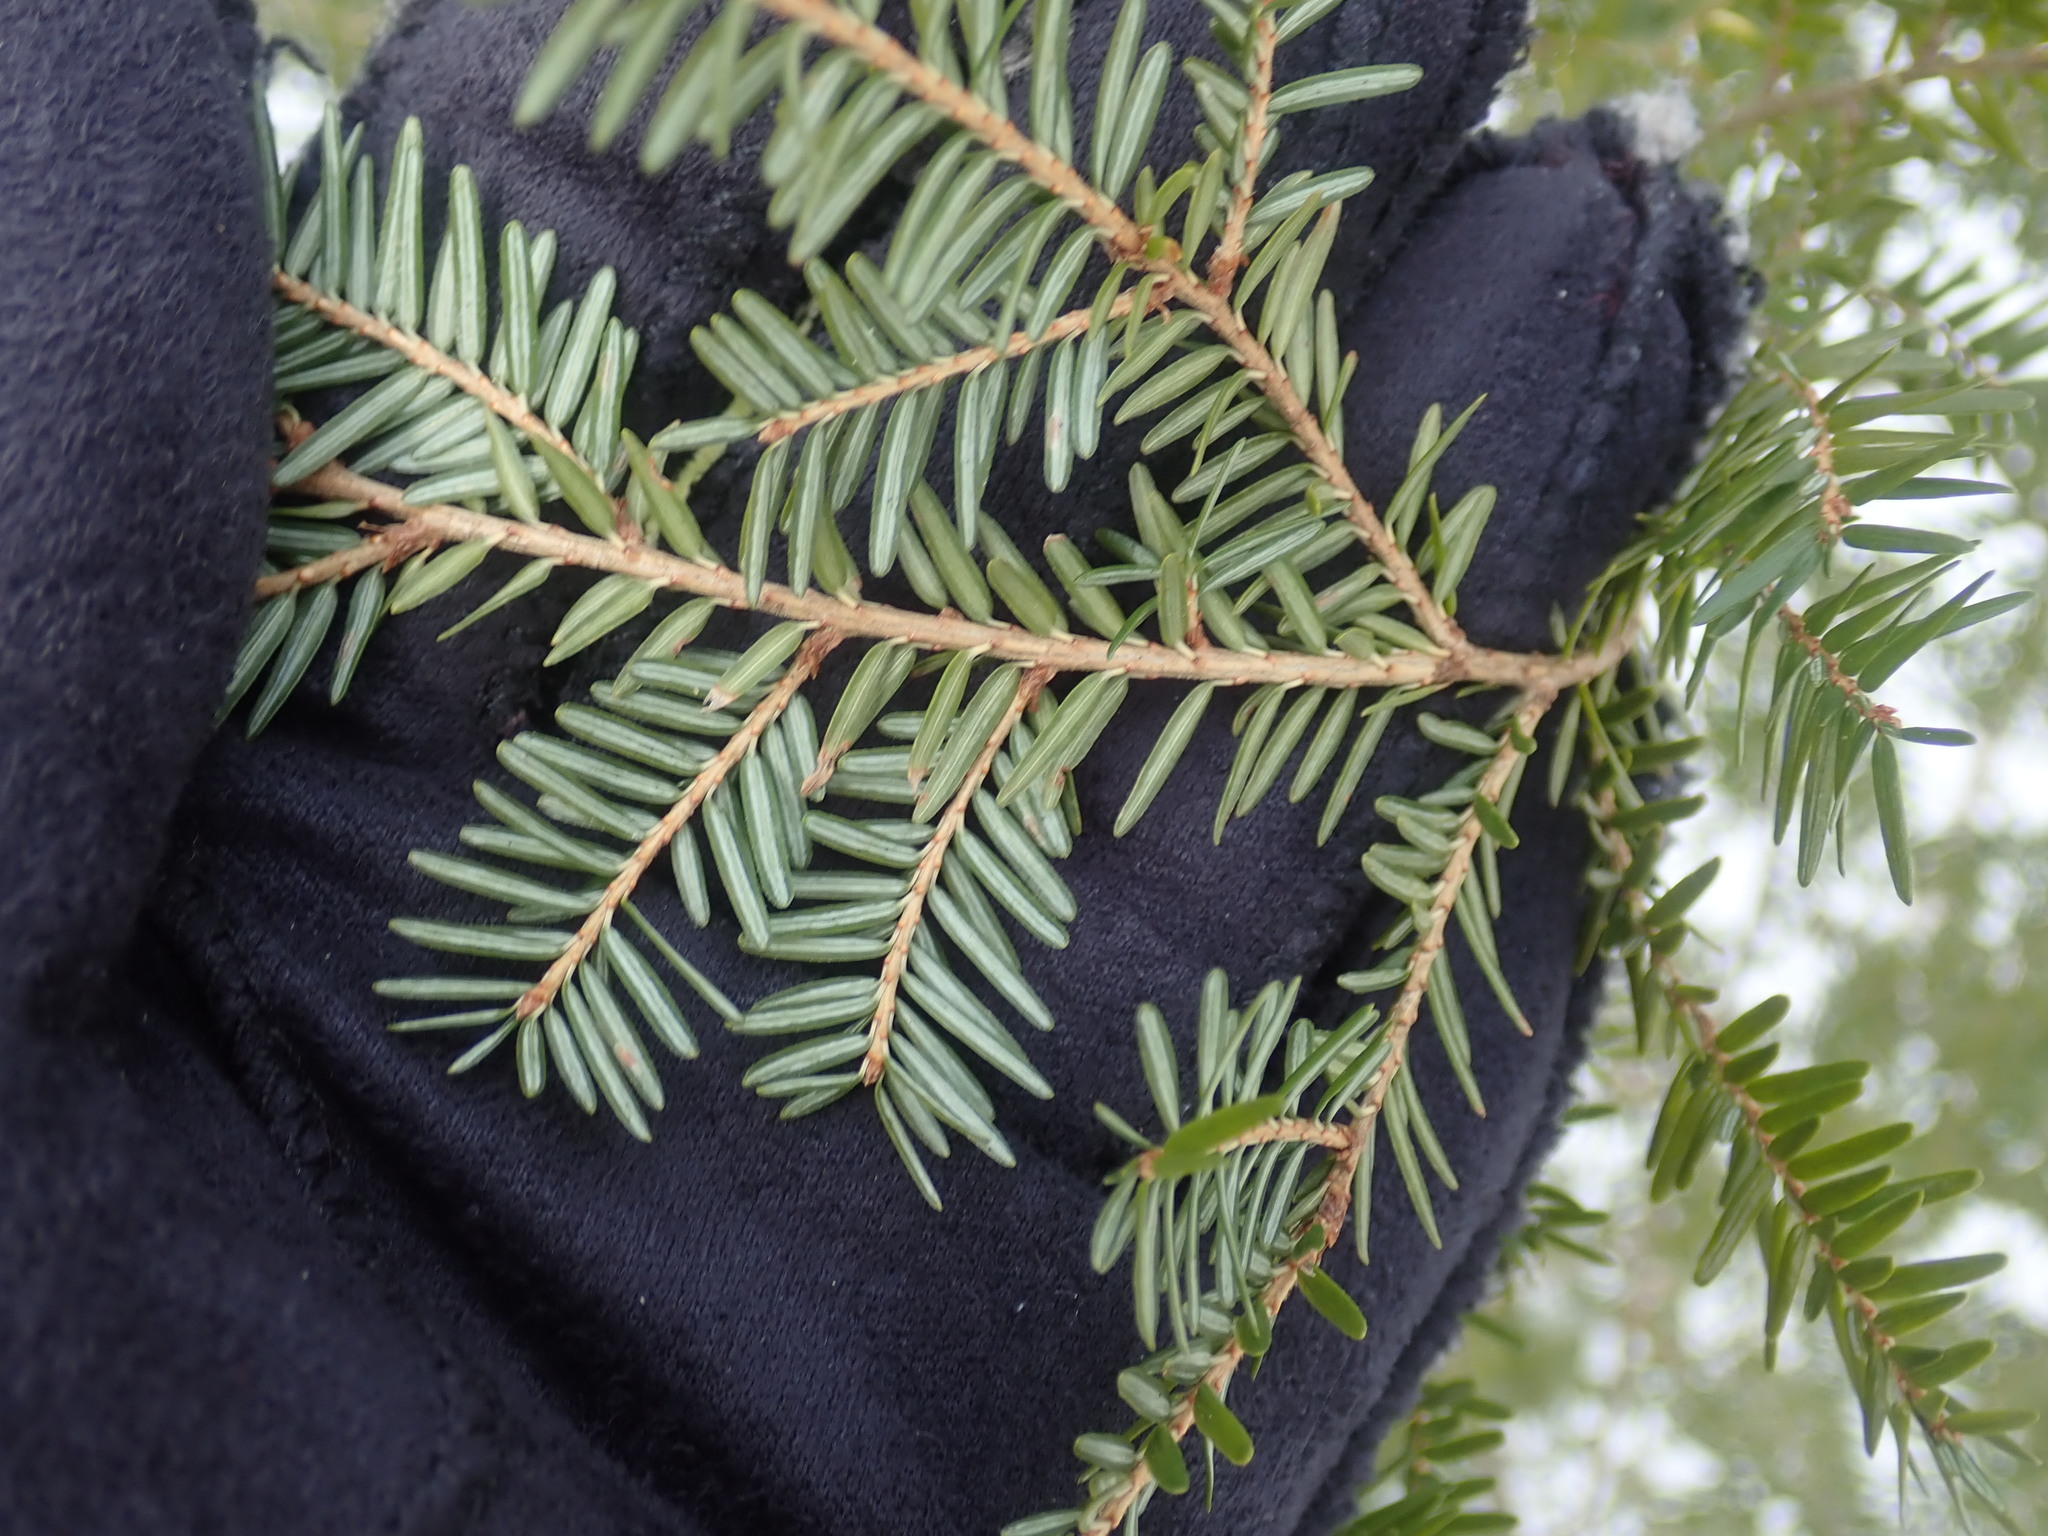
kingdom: Plantae
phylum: Tracheophyta
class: Pinopsida
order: Pinales
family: Pinaceae
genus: Tsuga
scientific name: Tsuga canadensis
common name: Eastern hemlock
